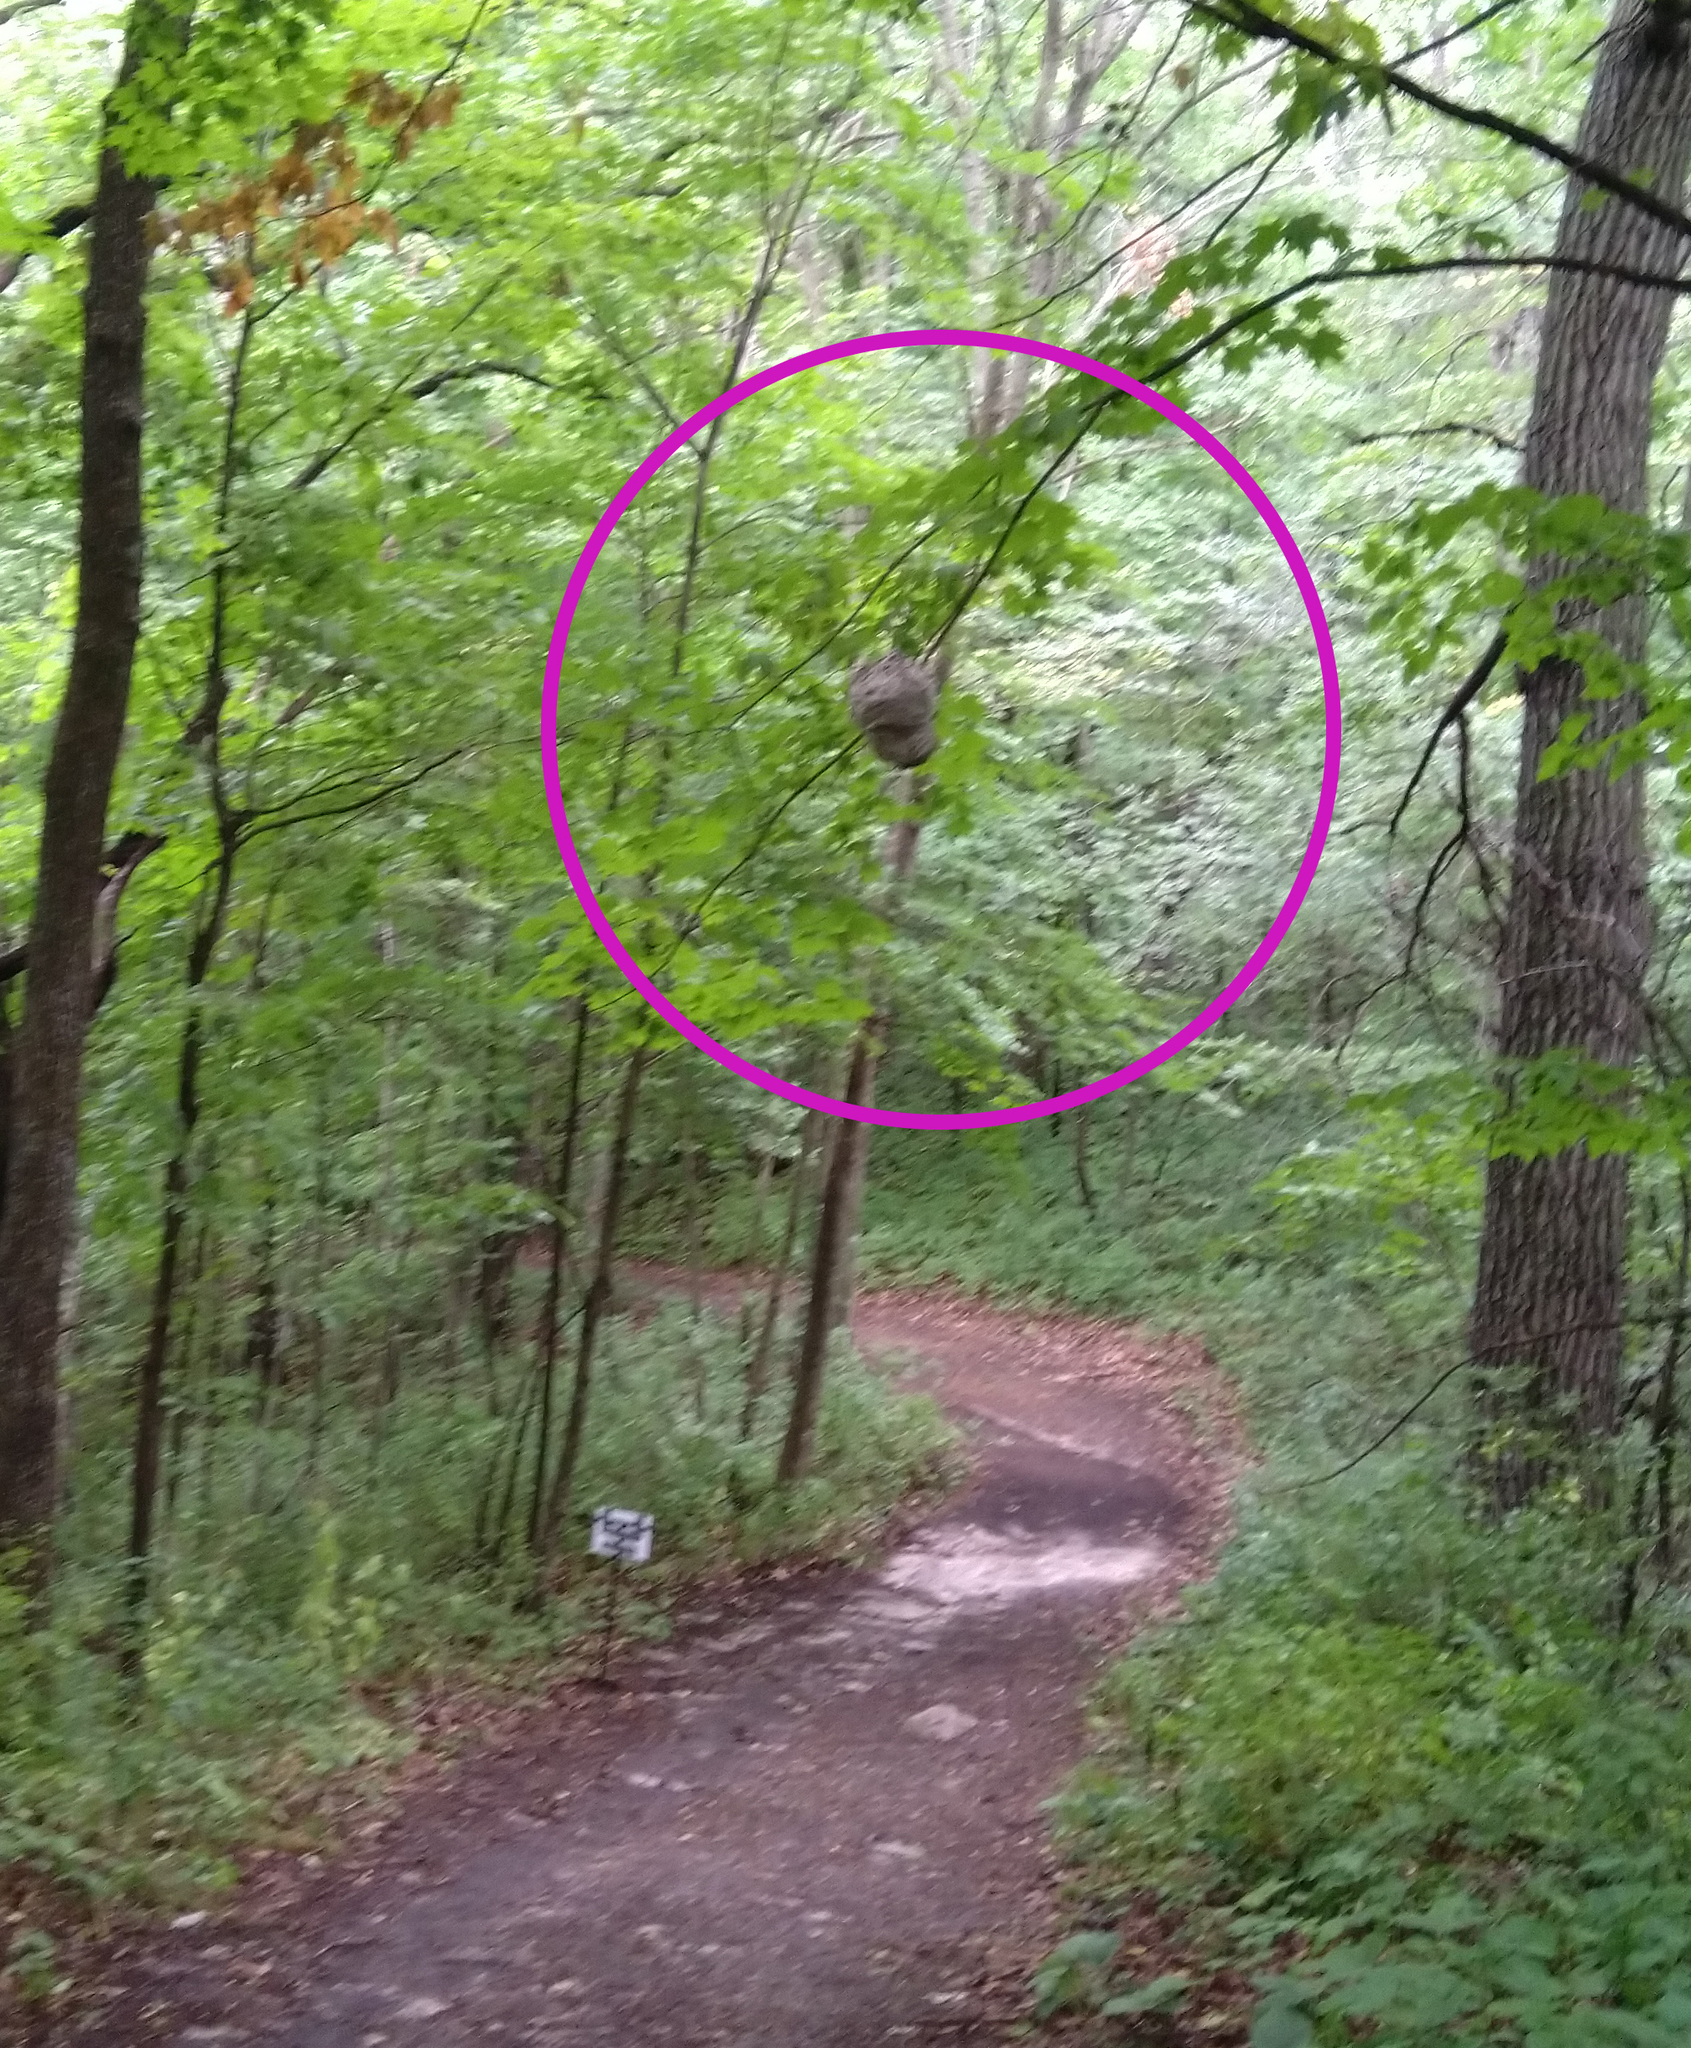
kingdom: Animalia
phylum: Arthropoda
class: Insecta
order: Hymenoptera
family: Vespidae
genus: Dolichovespula
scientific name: Dolichovespula
